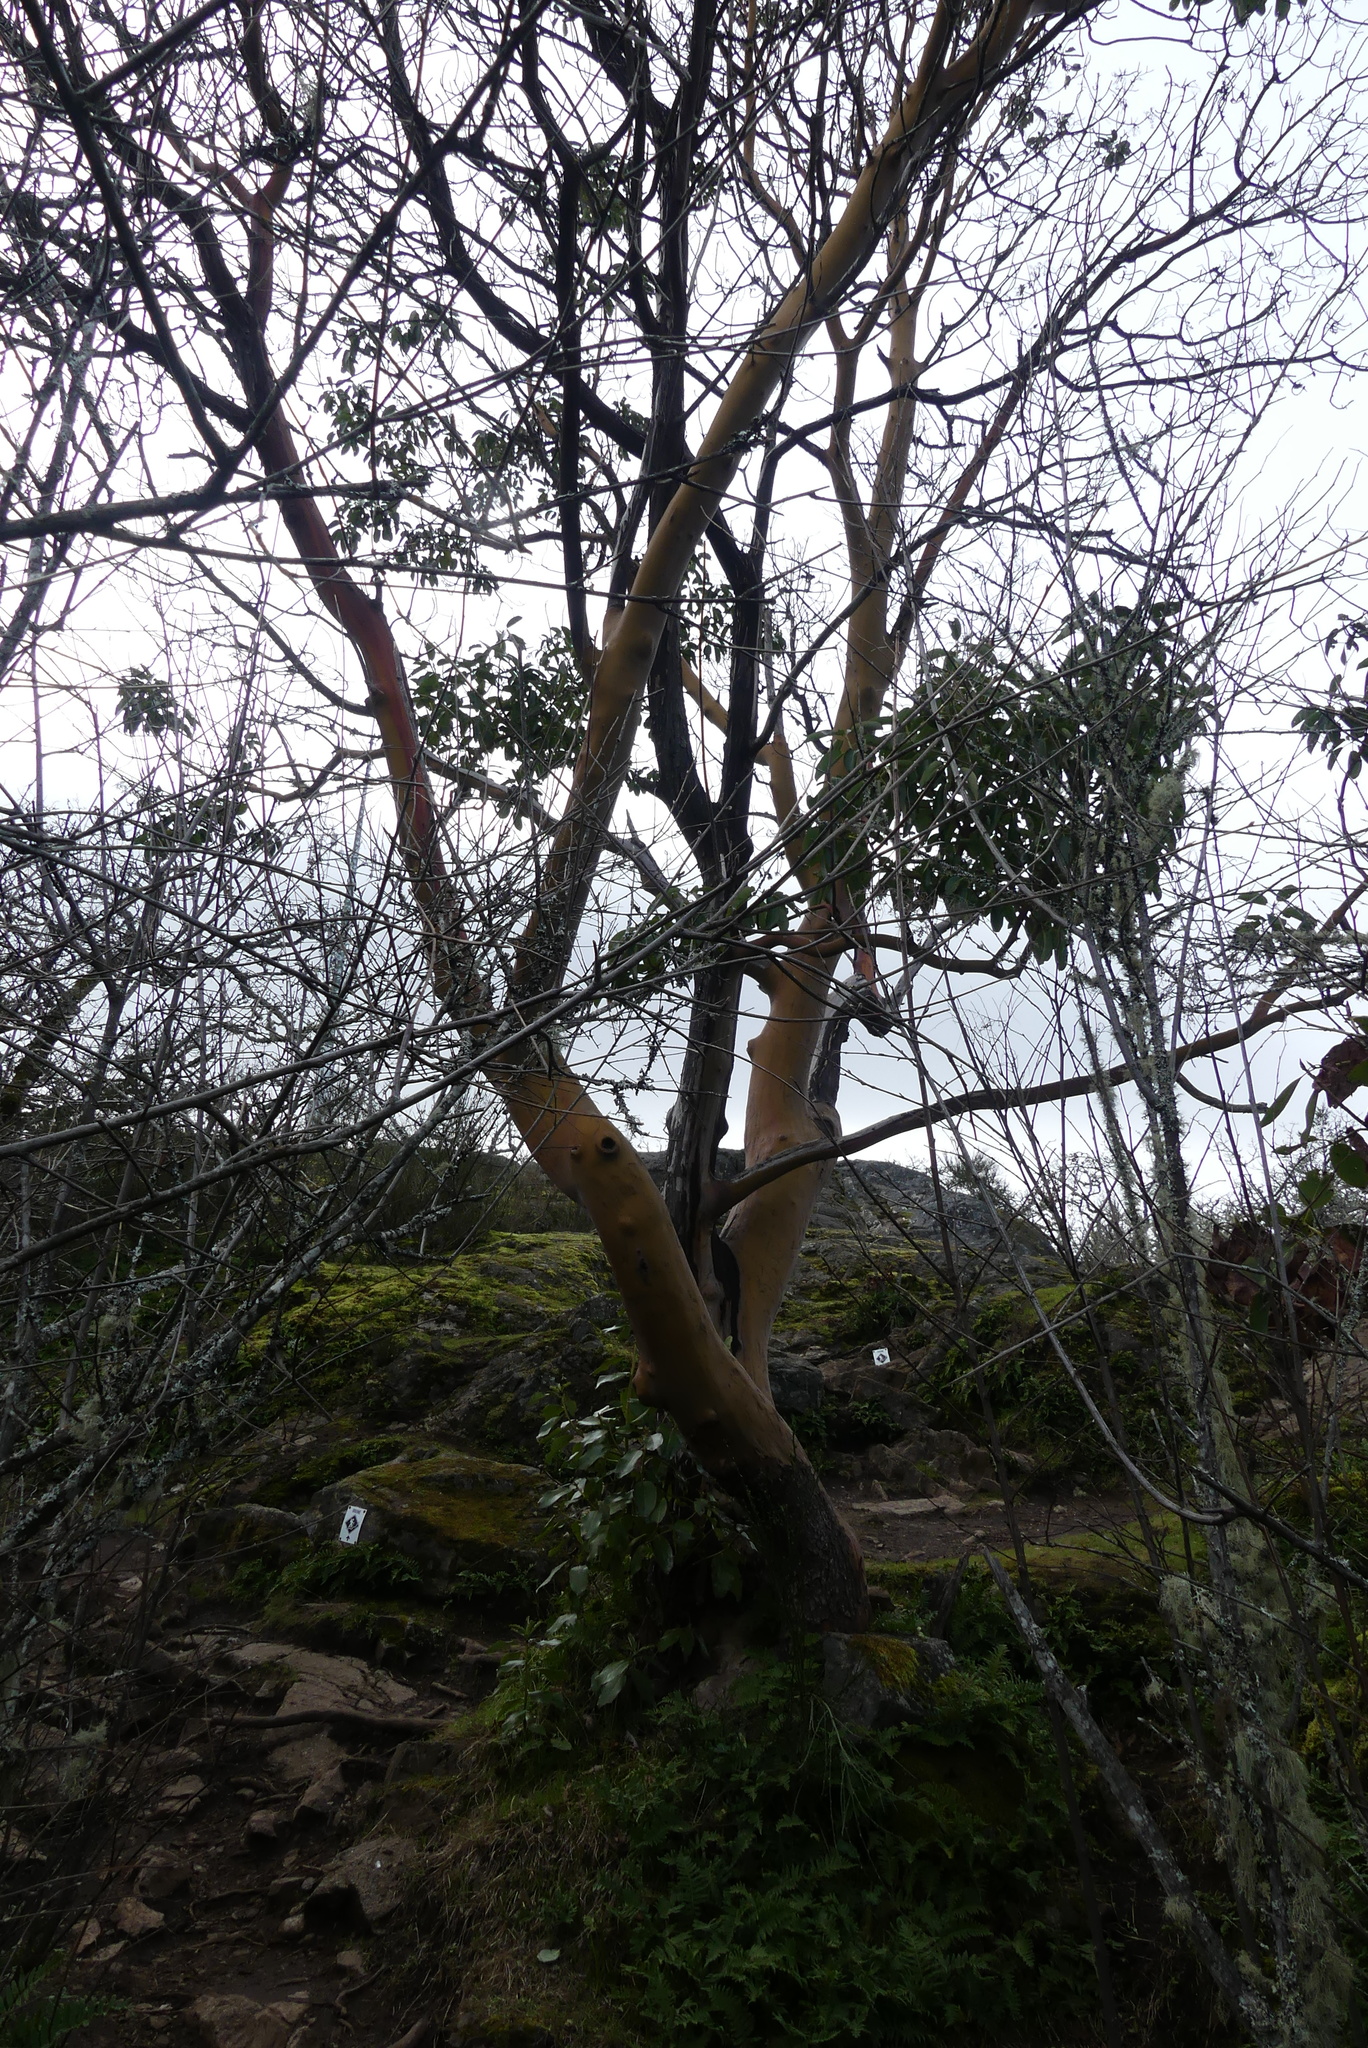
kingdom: Plantae
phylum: Tracheophyta
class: Magnoliopsida
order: Ericales
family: Ericaceae
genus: Arbutus
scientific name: Arbutus menziesii
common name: Pacific madrone
